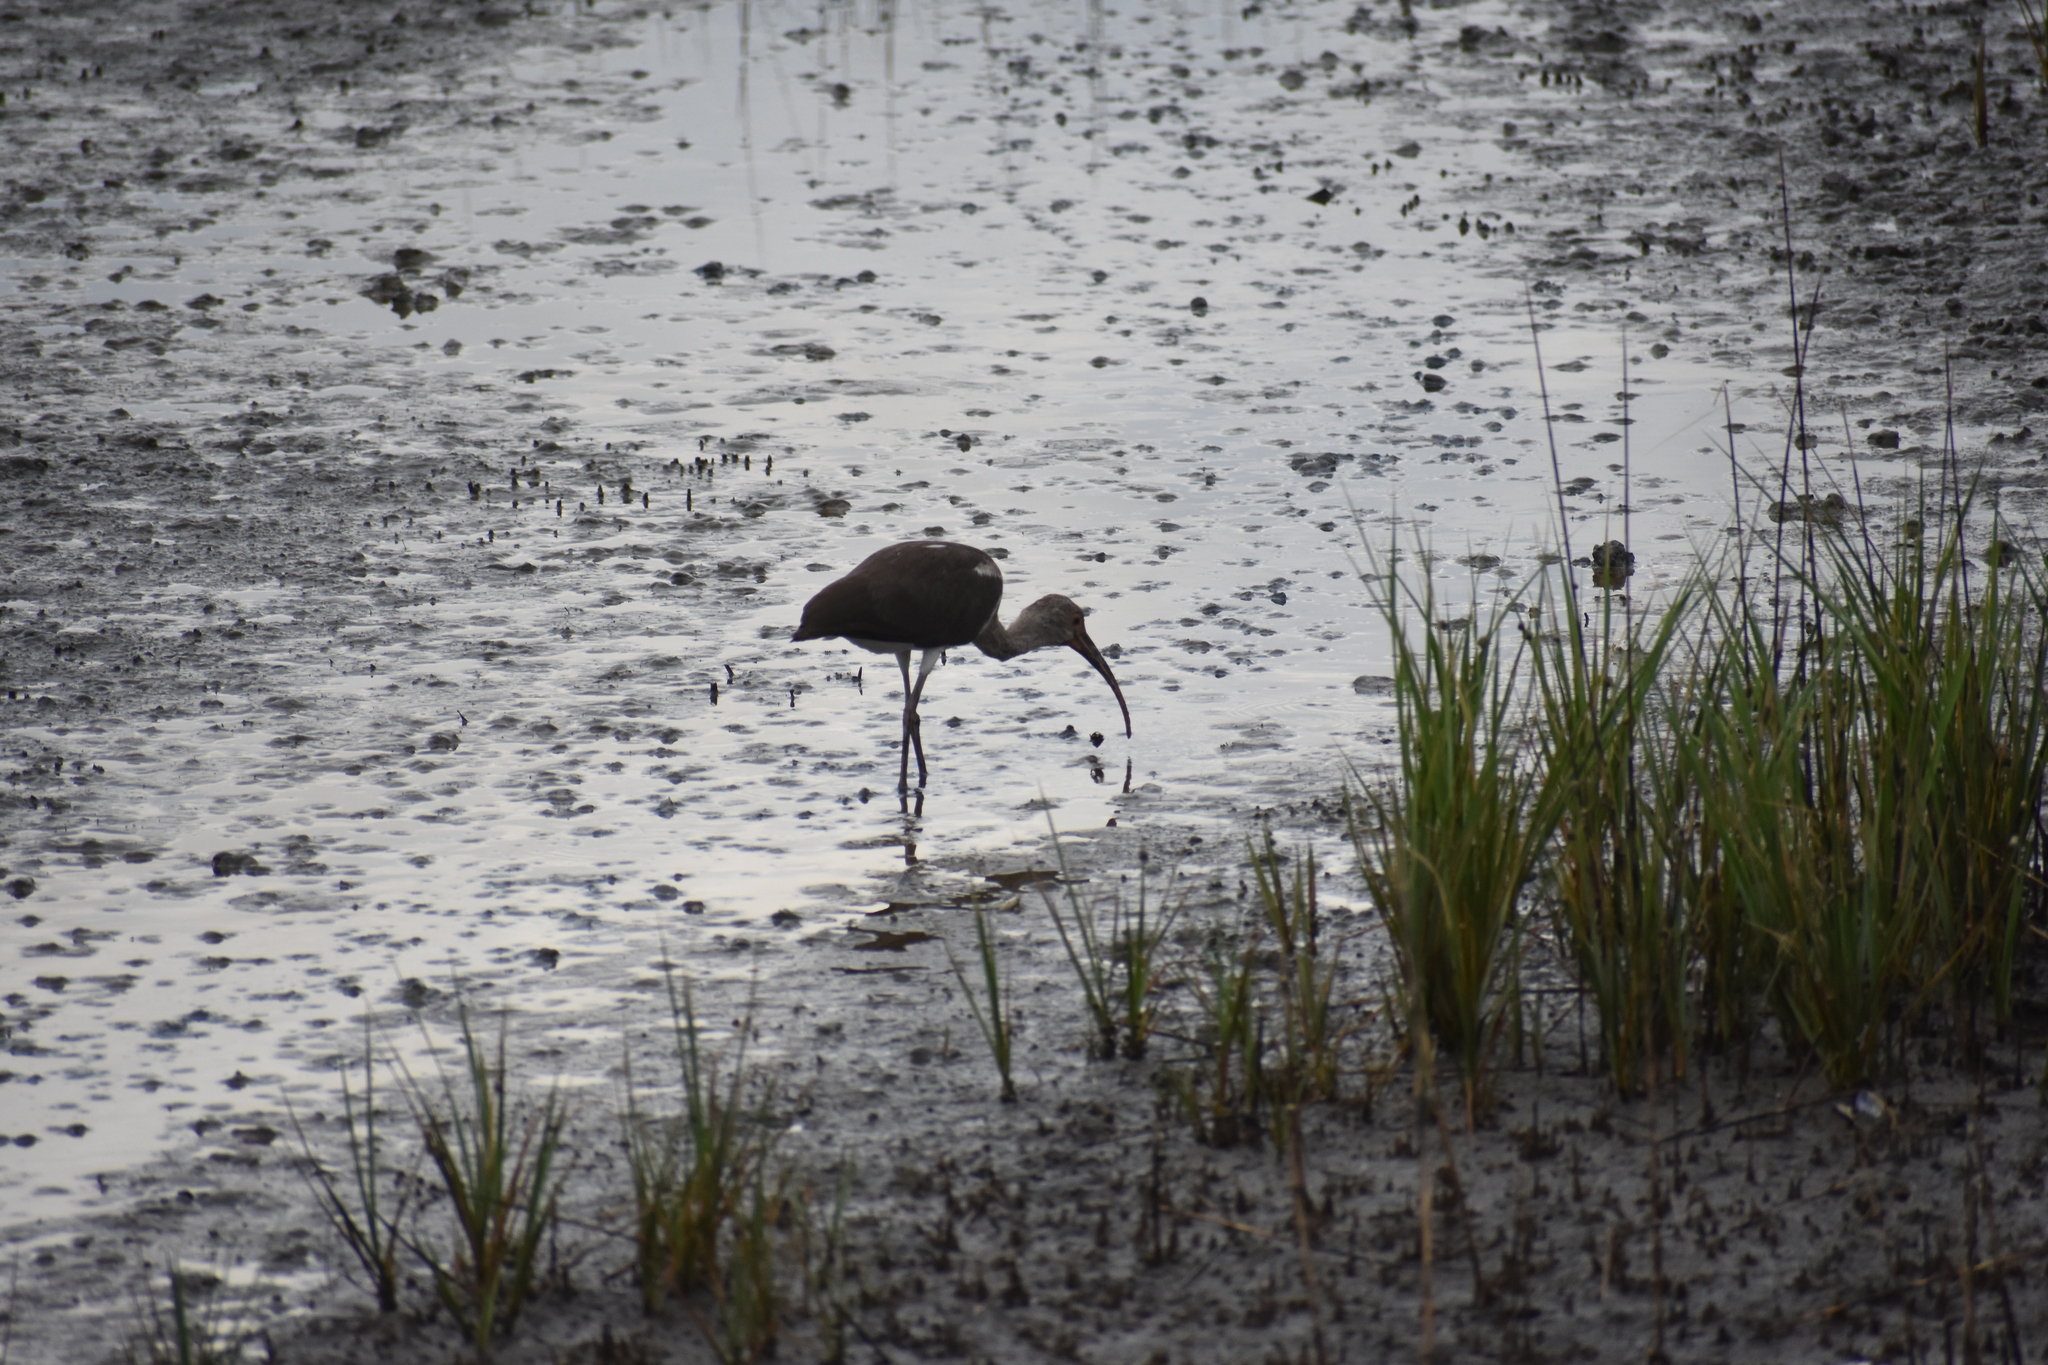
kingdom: Animalia
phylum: Chordata
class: Aves
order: Pelecaniformes
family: Threskiornithidae
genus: Eudocimus
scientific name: Eudocimus albus
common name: White ibis
